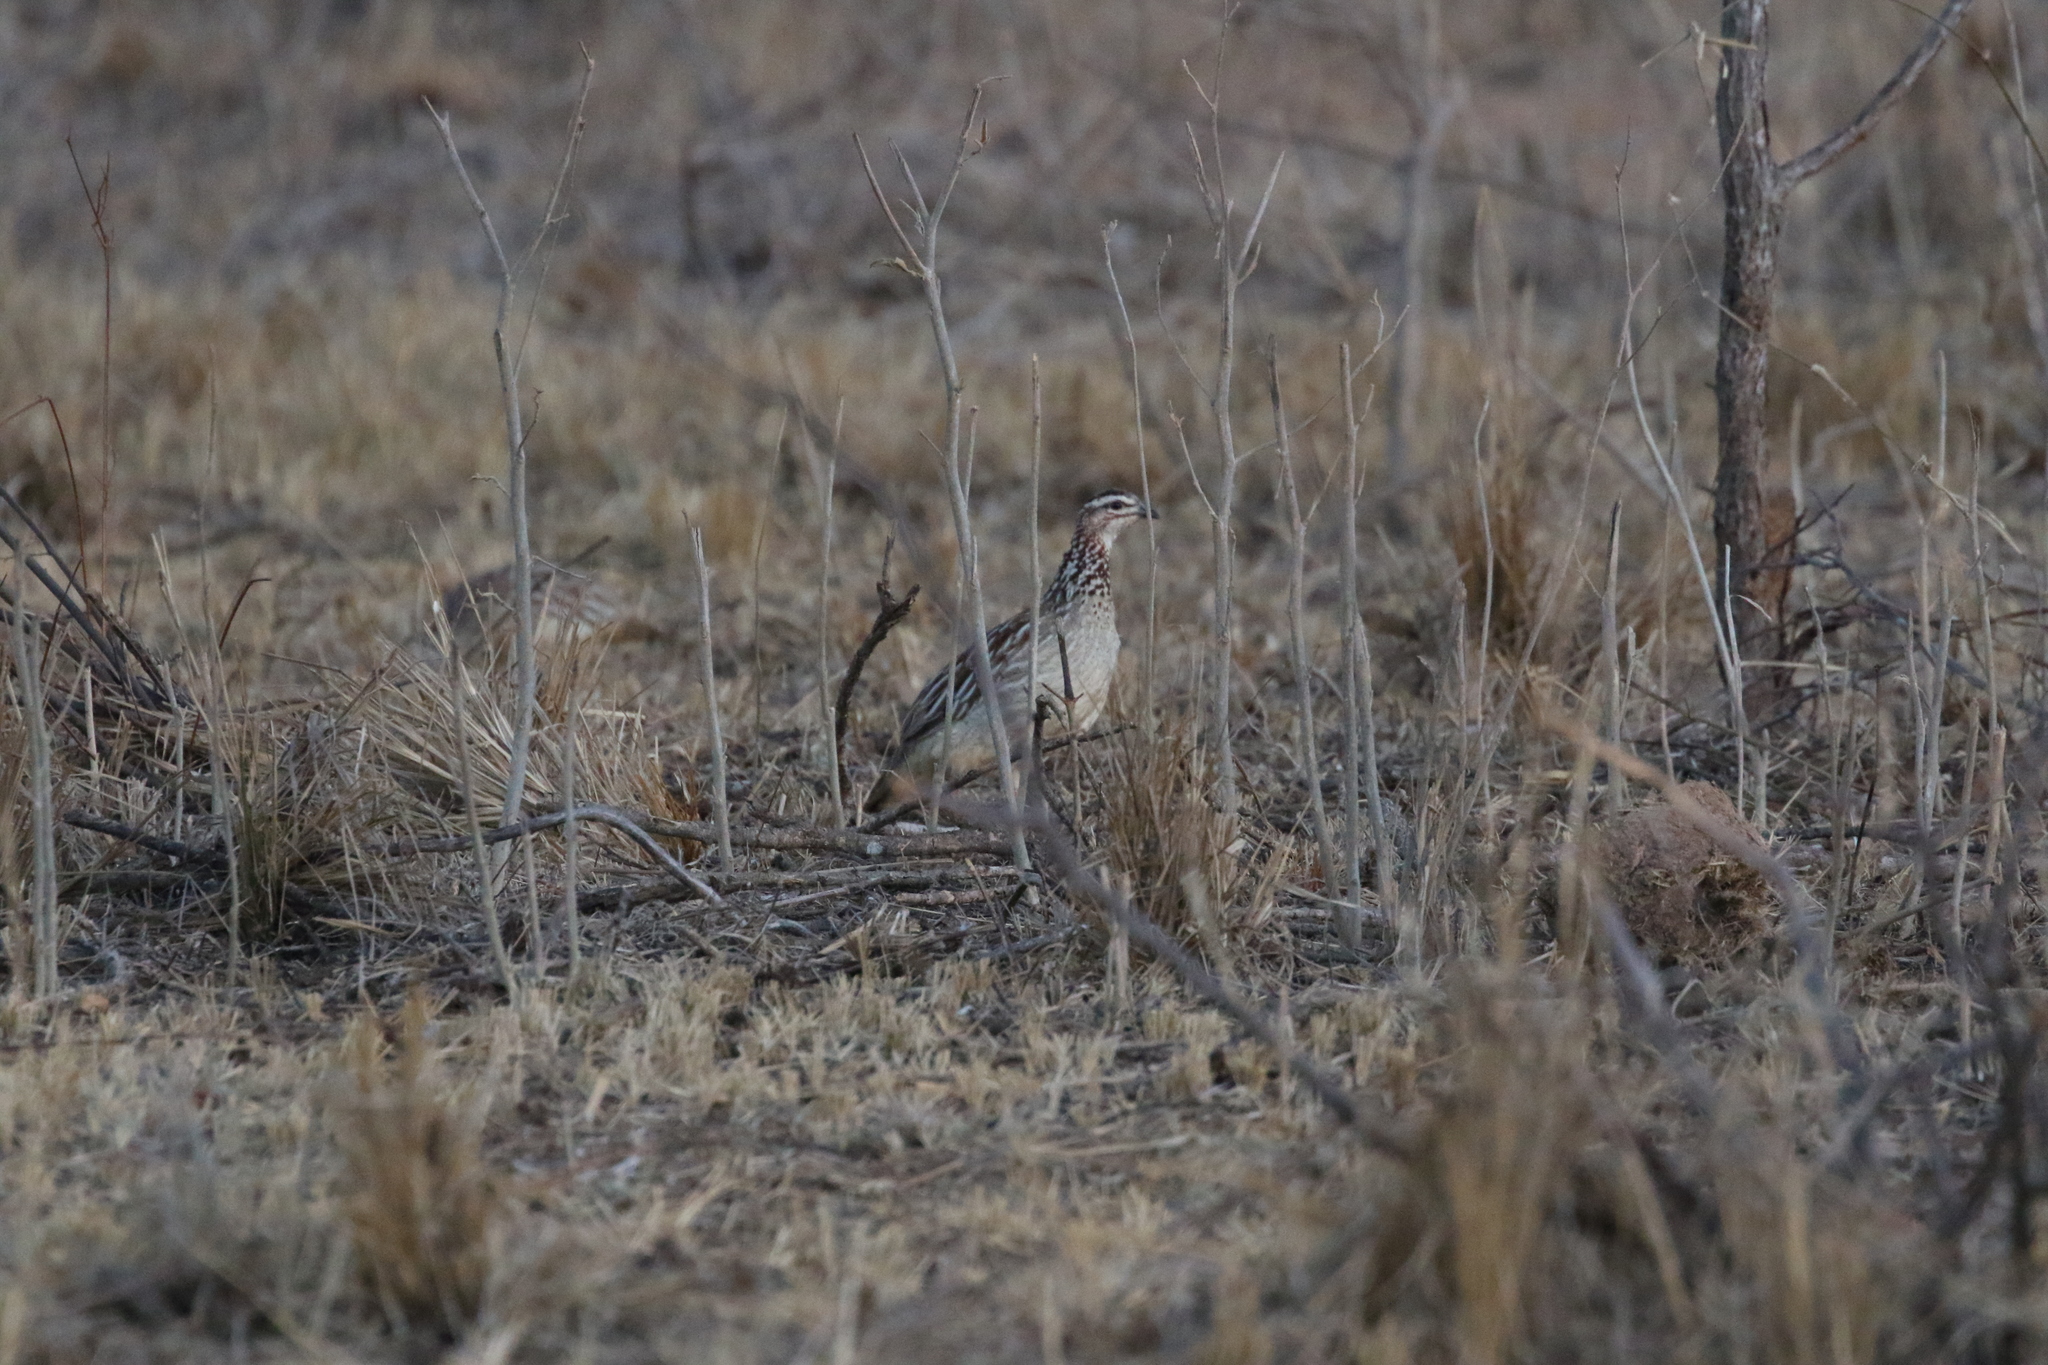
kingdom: Animalia
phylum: Chordata
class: Aves
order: Galliformes
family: Phasianidae
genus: Ortygornis
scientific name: Ortygornis sephaena
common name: Crested francolin
